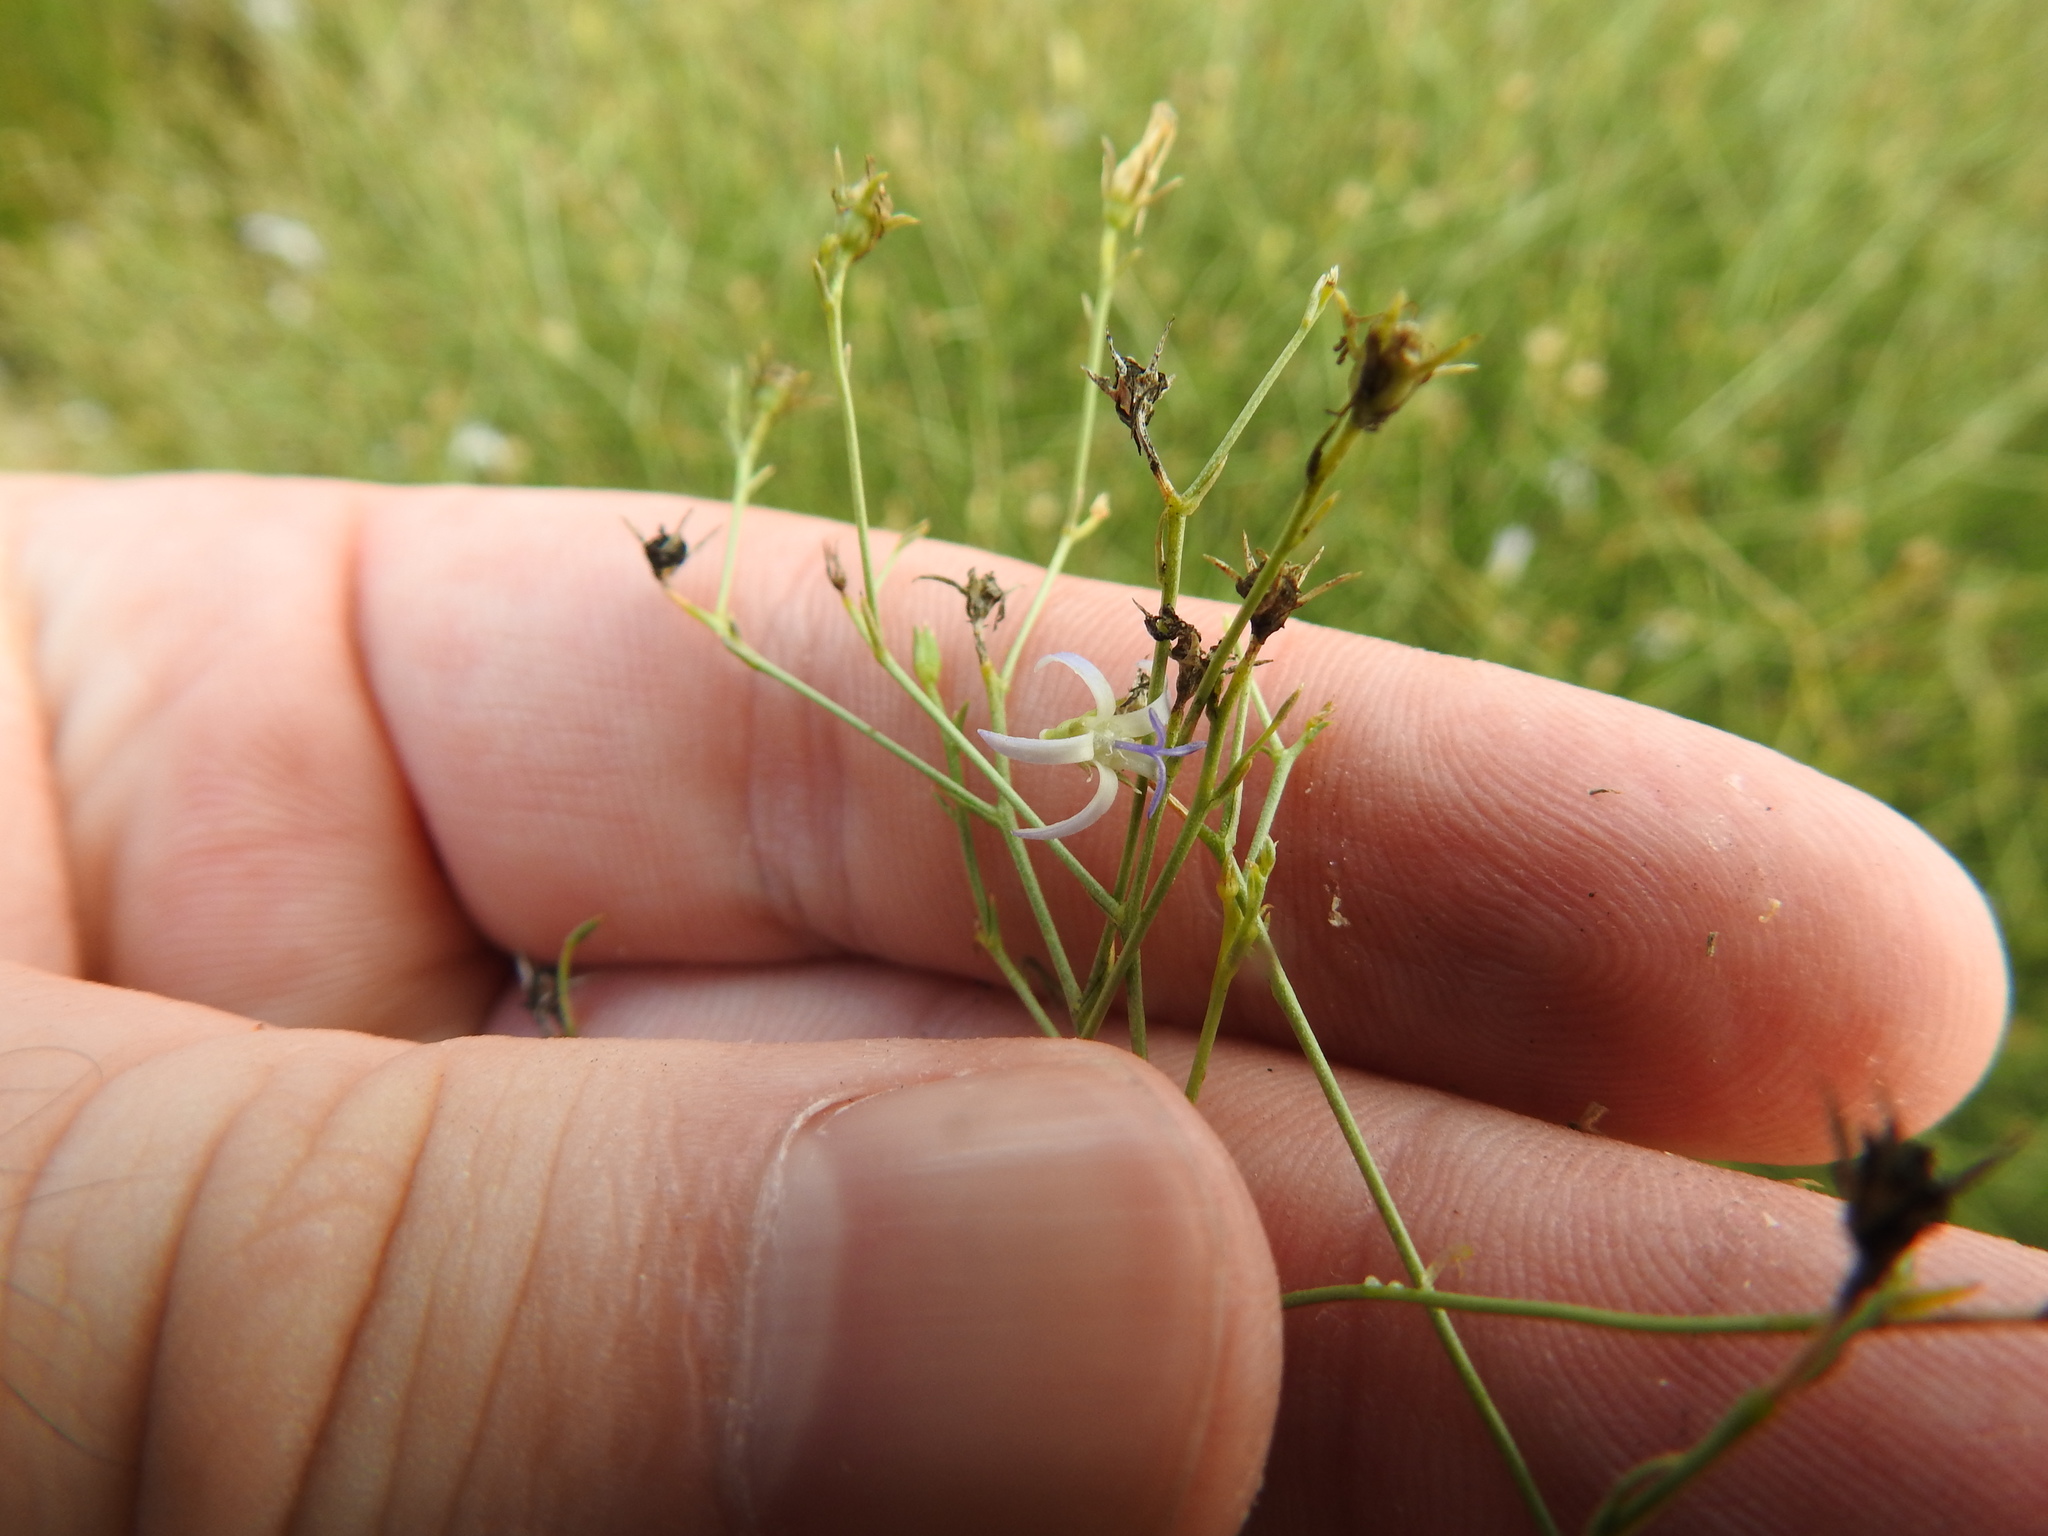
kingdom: Plantae
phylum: Tracheophyta
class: Magnoliopsida
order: Asterales
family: Campanulaceae
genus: Wahlenbergia
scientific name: Wahlenbergia magaliesbergensis
